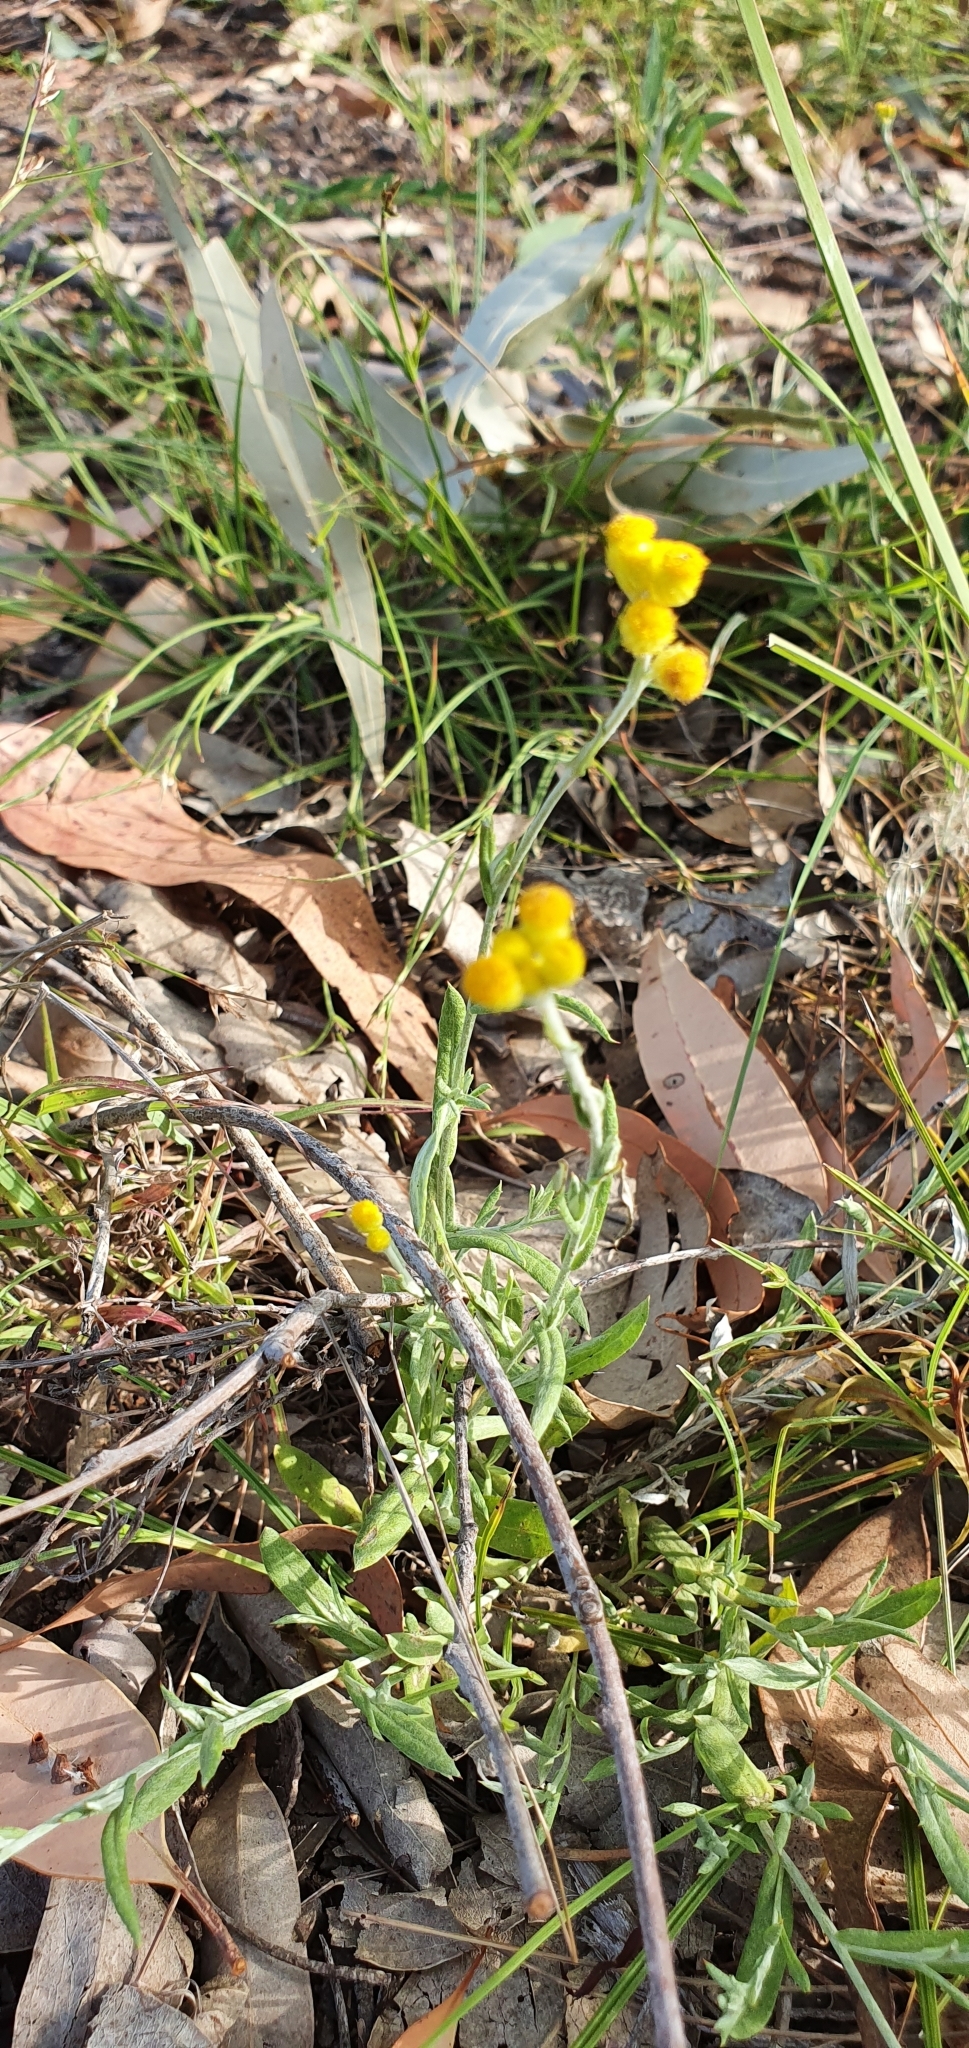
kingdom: Plantae
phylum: Tracheophyta
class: Magnoliopsida
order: Asterales
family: Asteraceae
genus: Chrysocephalum
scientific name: Chrysocephalum apiculatum
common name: Common everlasting
